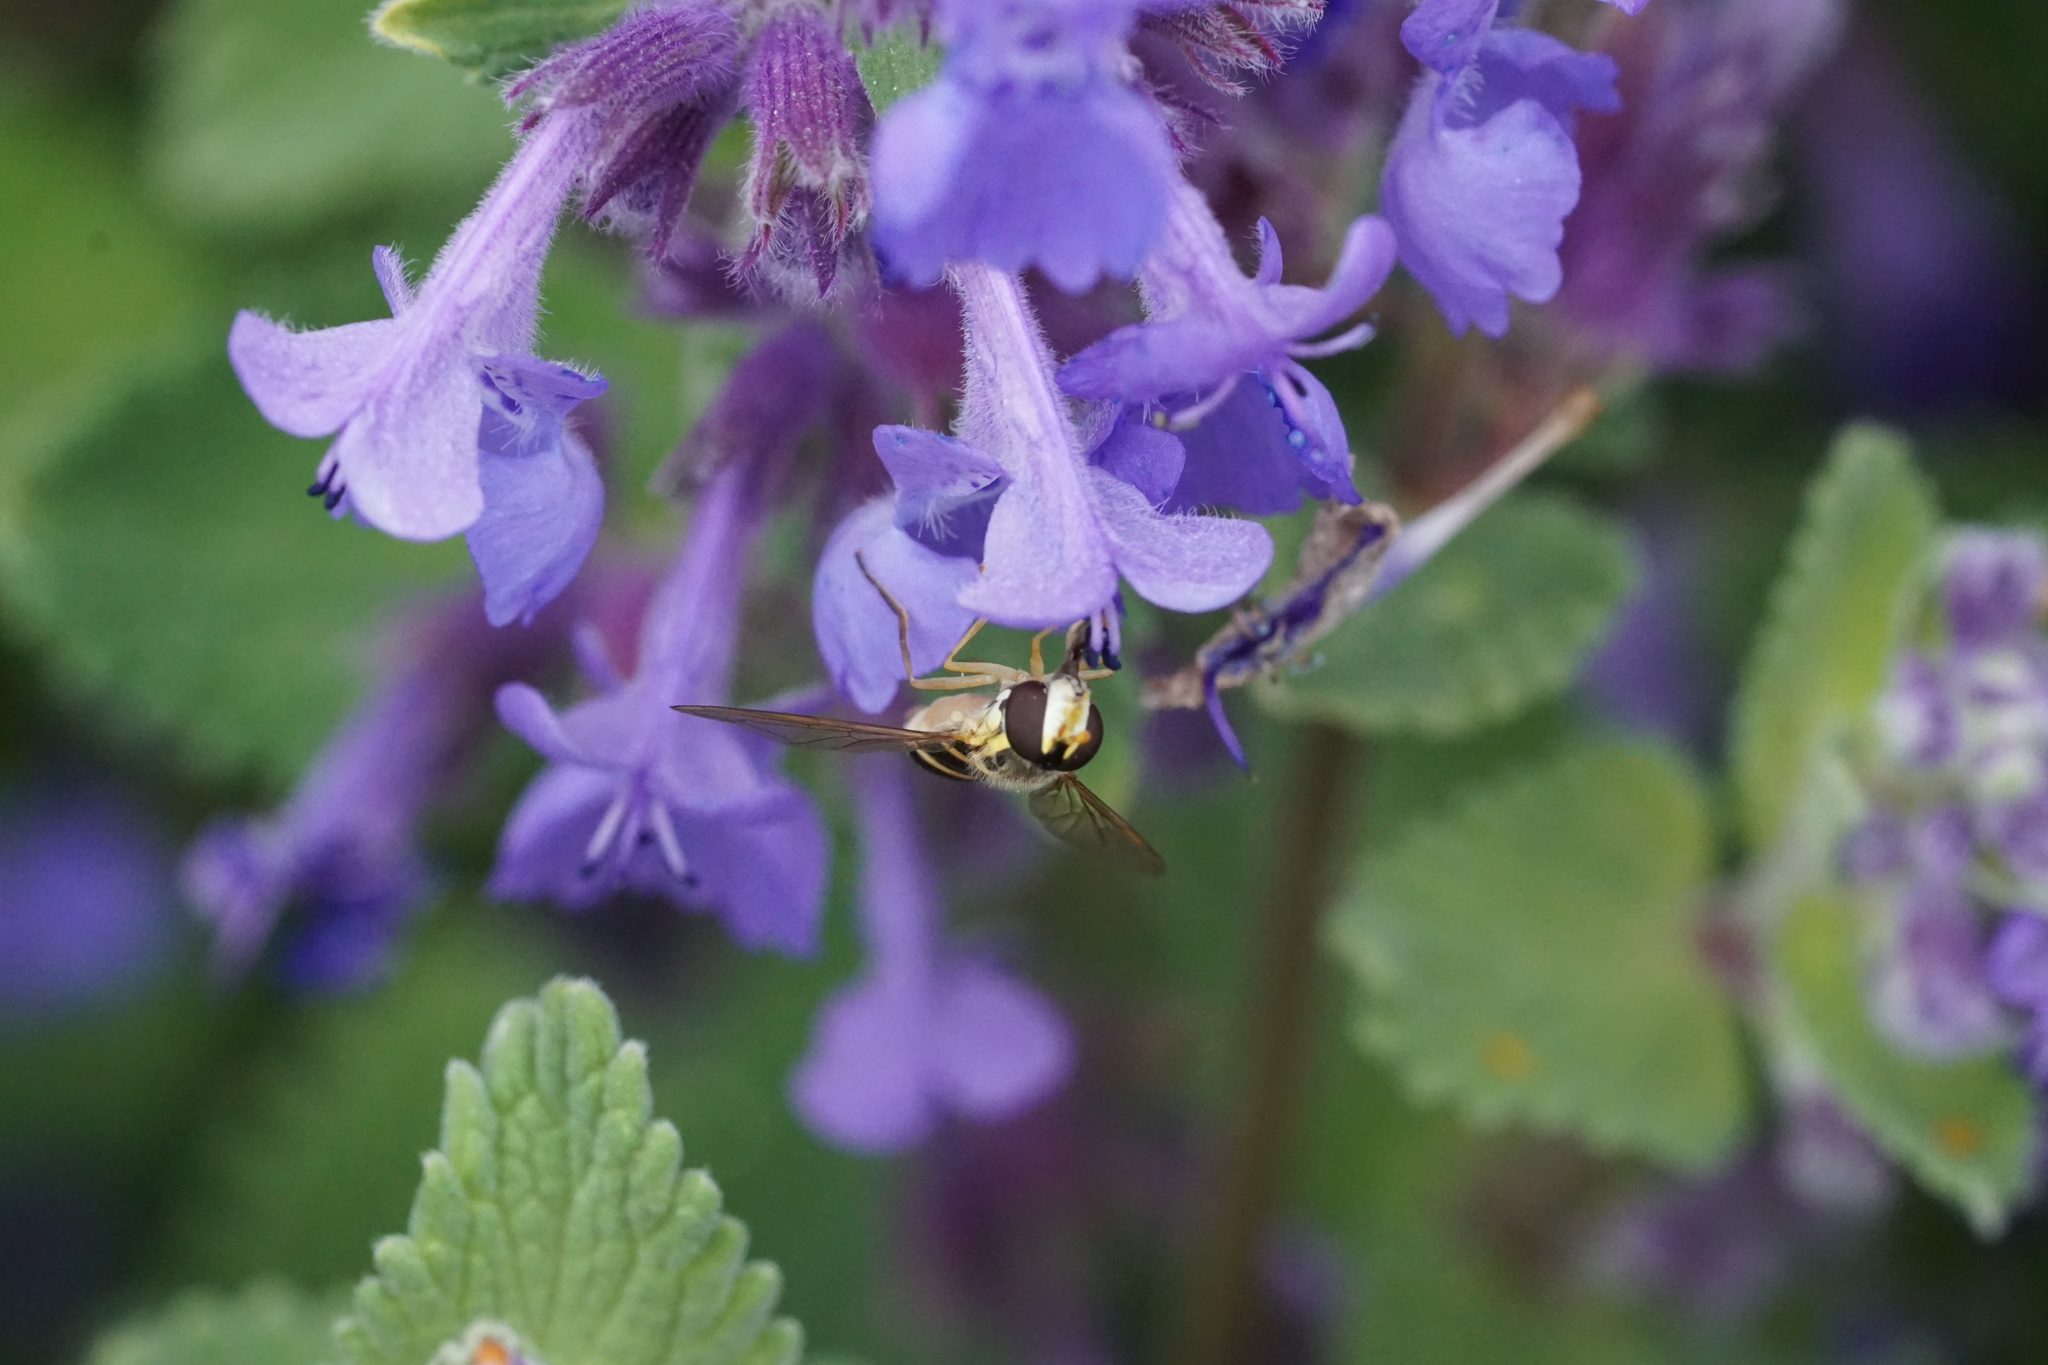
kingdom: Animalia
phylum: Arthropoda
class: Insecta
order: Diptera
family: Syrphidae
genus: Sphaerophoria
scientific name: Sphaerophoria
